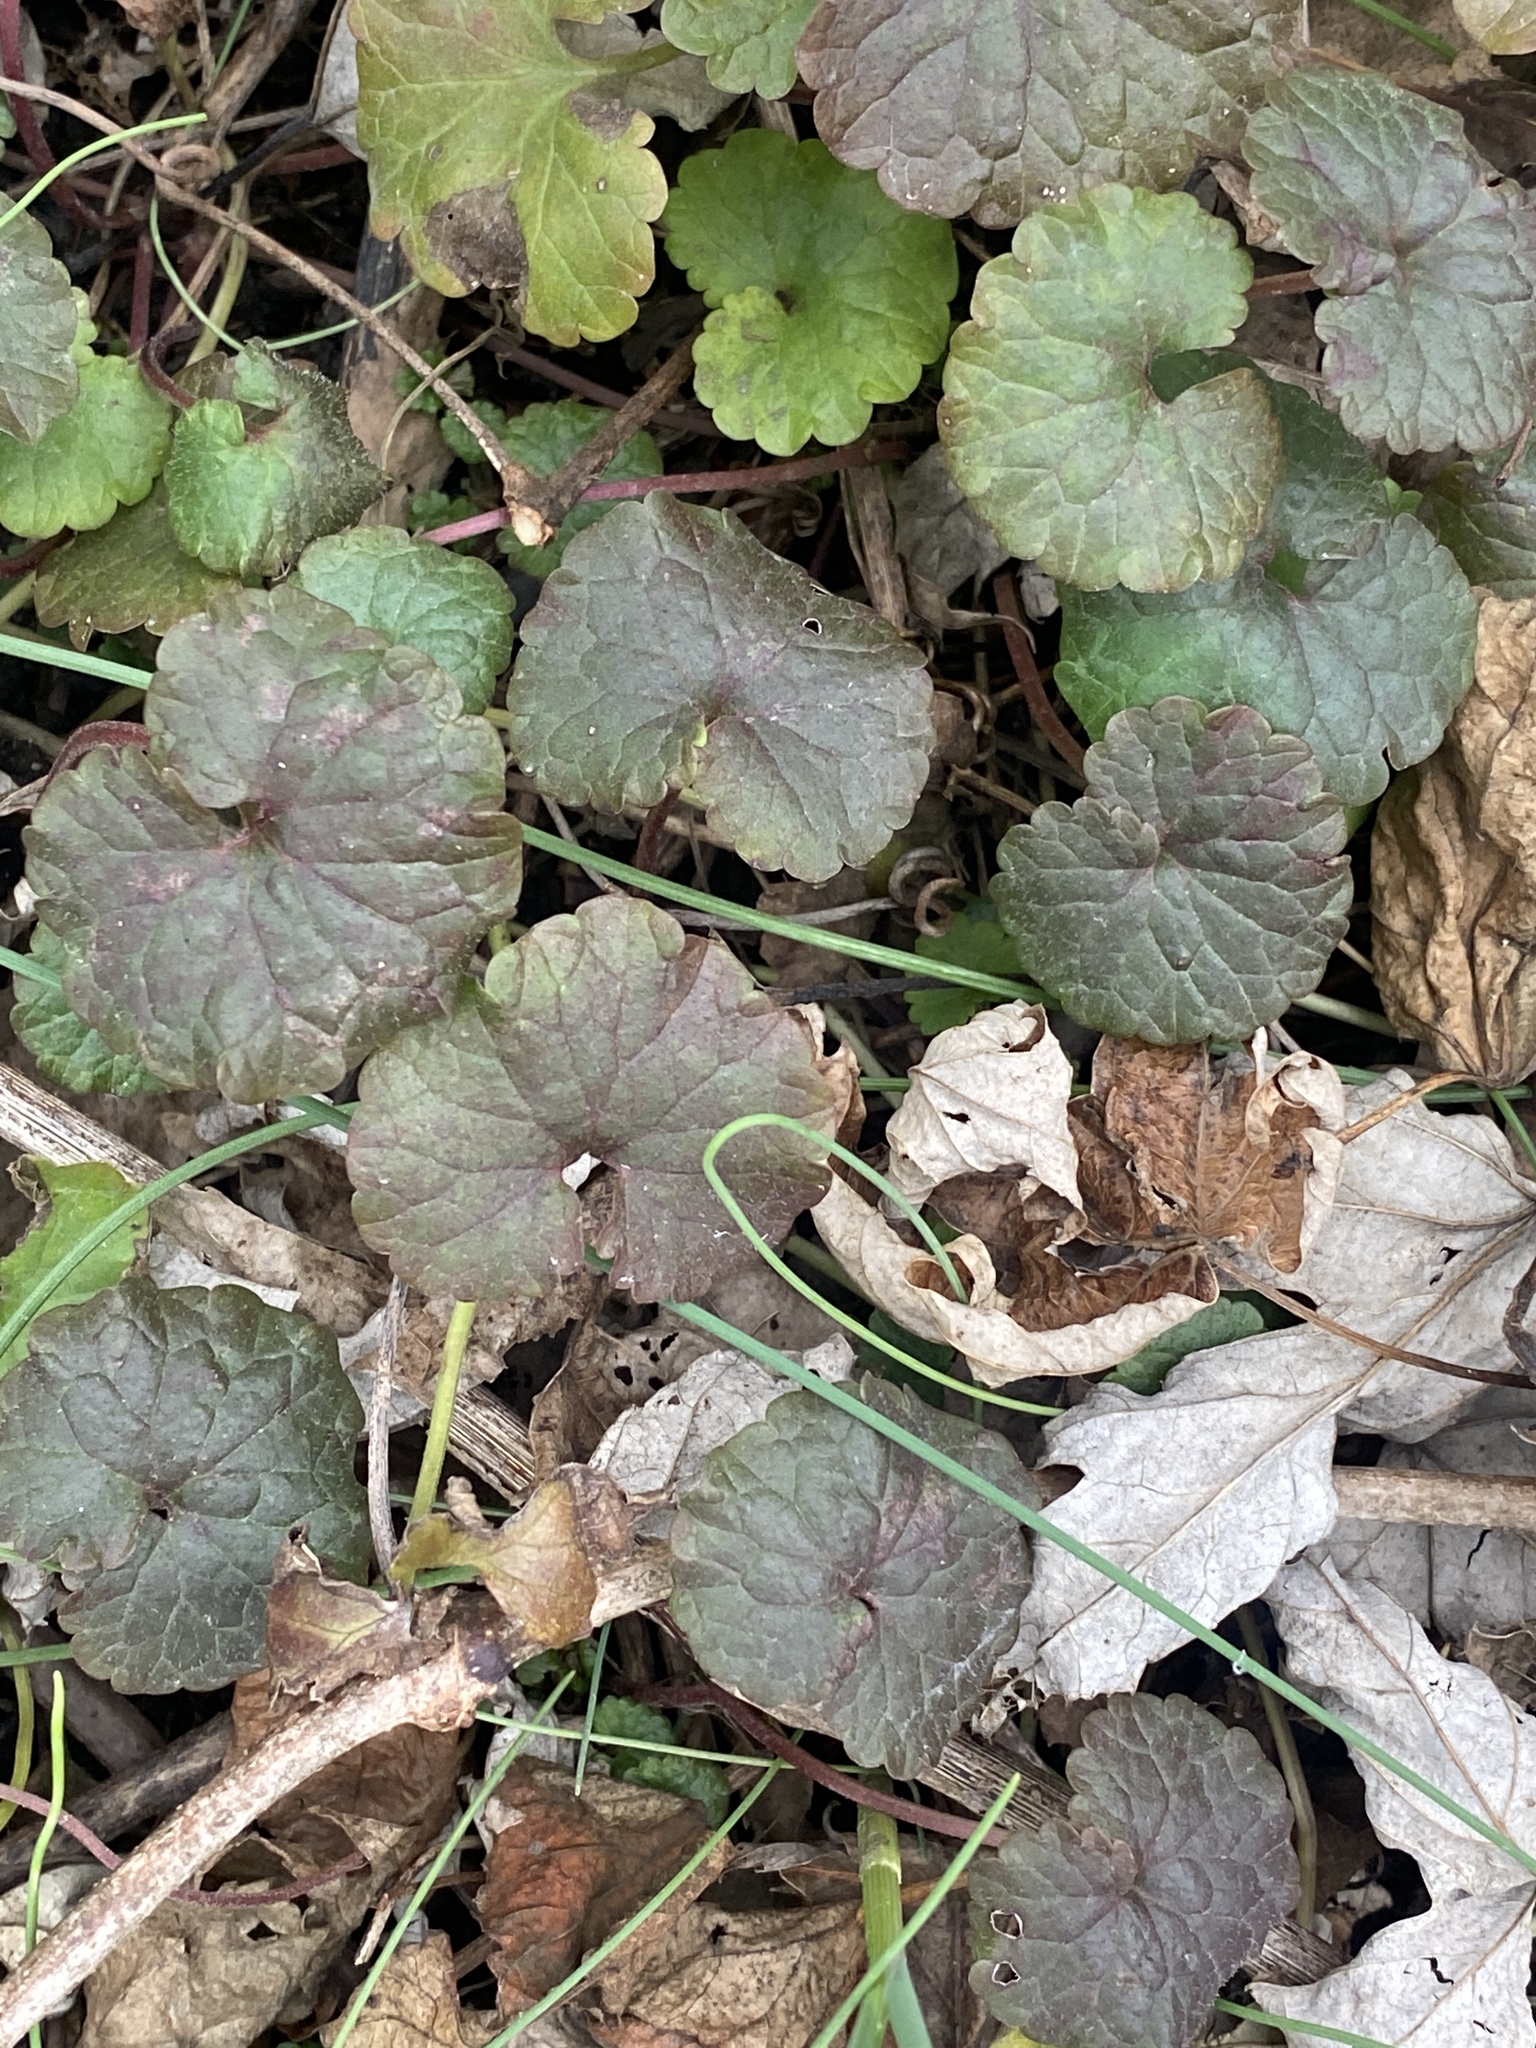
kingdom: Plantae
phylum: Tracheophyta
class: Magnoliopsida
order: Lamiales
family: Lamiaceae
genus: Glechoma
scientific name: Glechoma hederacea
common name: Ground ivy
